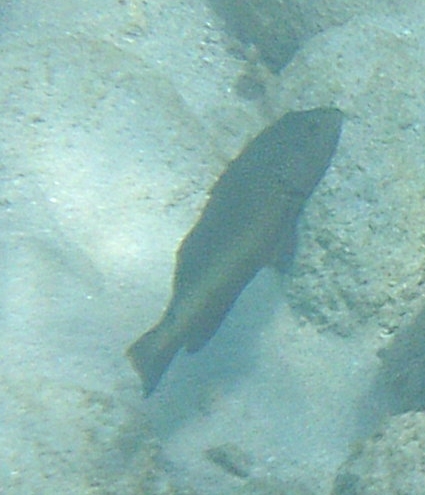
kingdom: Animalia
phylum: Chordata
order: Perciformes
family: Serranidae
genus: Cephalopholis
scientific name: Cephalopholis fulva
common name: Butterfish
